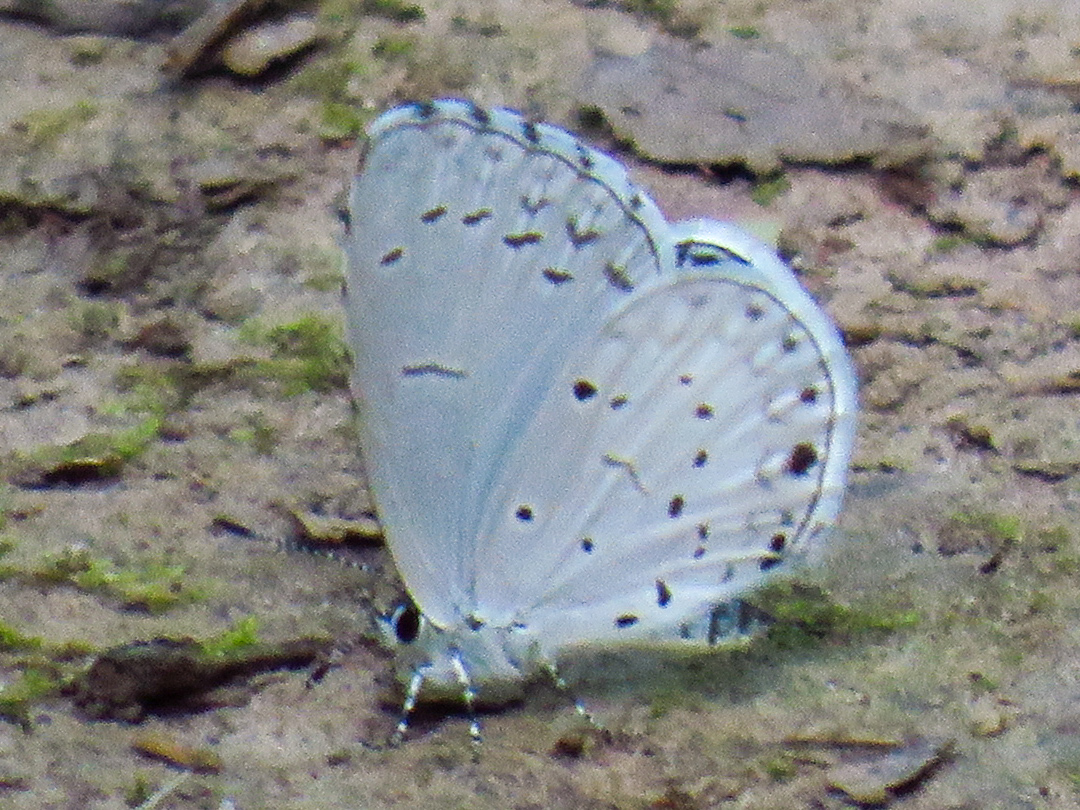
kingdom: Animalia
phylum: Arthropoda
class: Insecta
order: Lepidoptera
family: Lycaenidae
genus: Cyaniris
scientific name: Cyaniris neglecta
